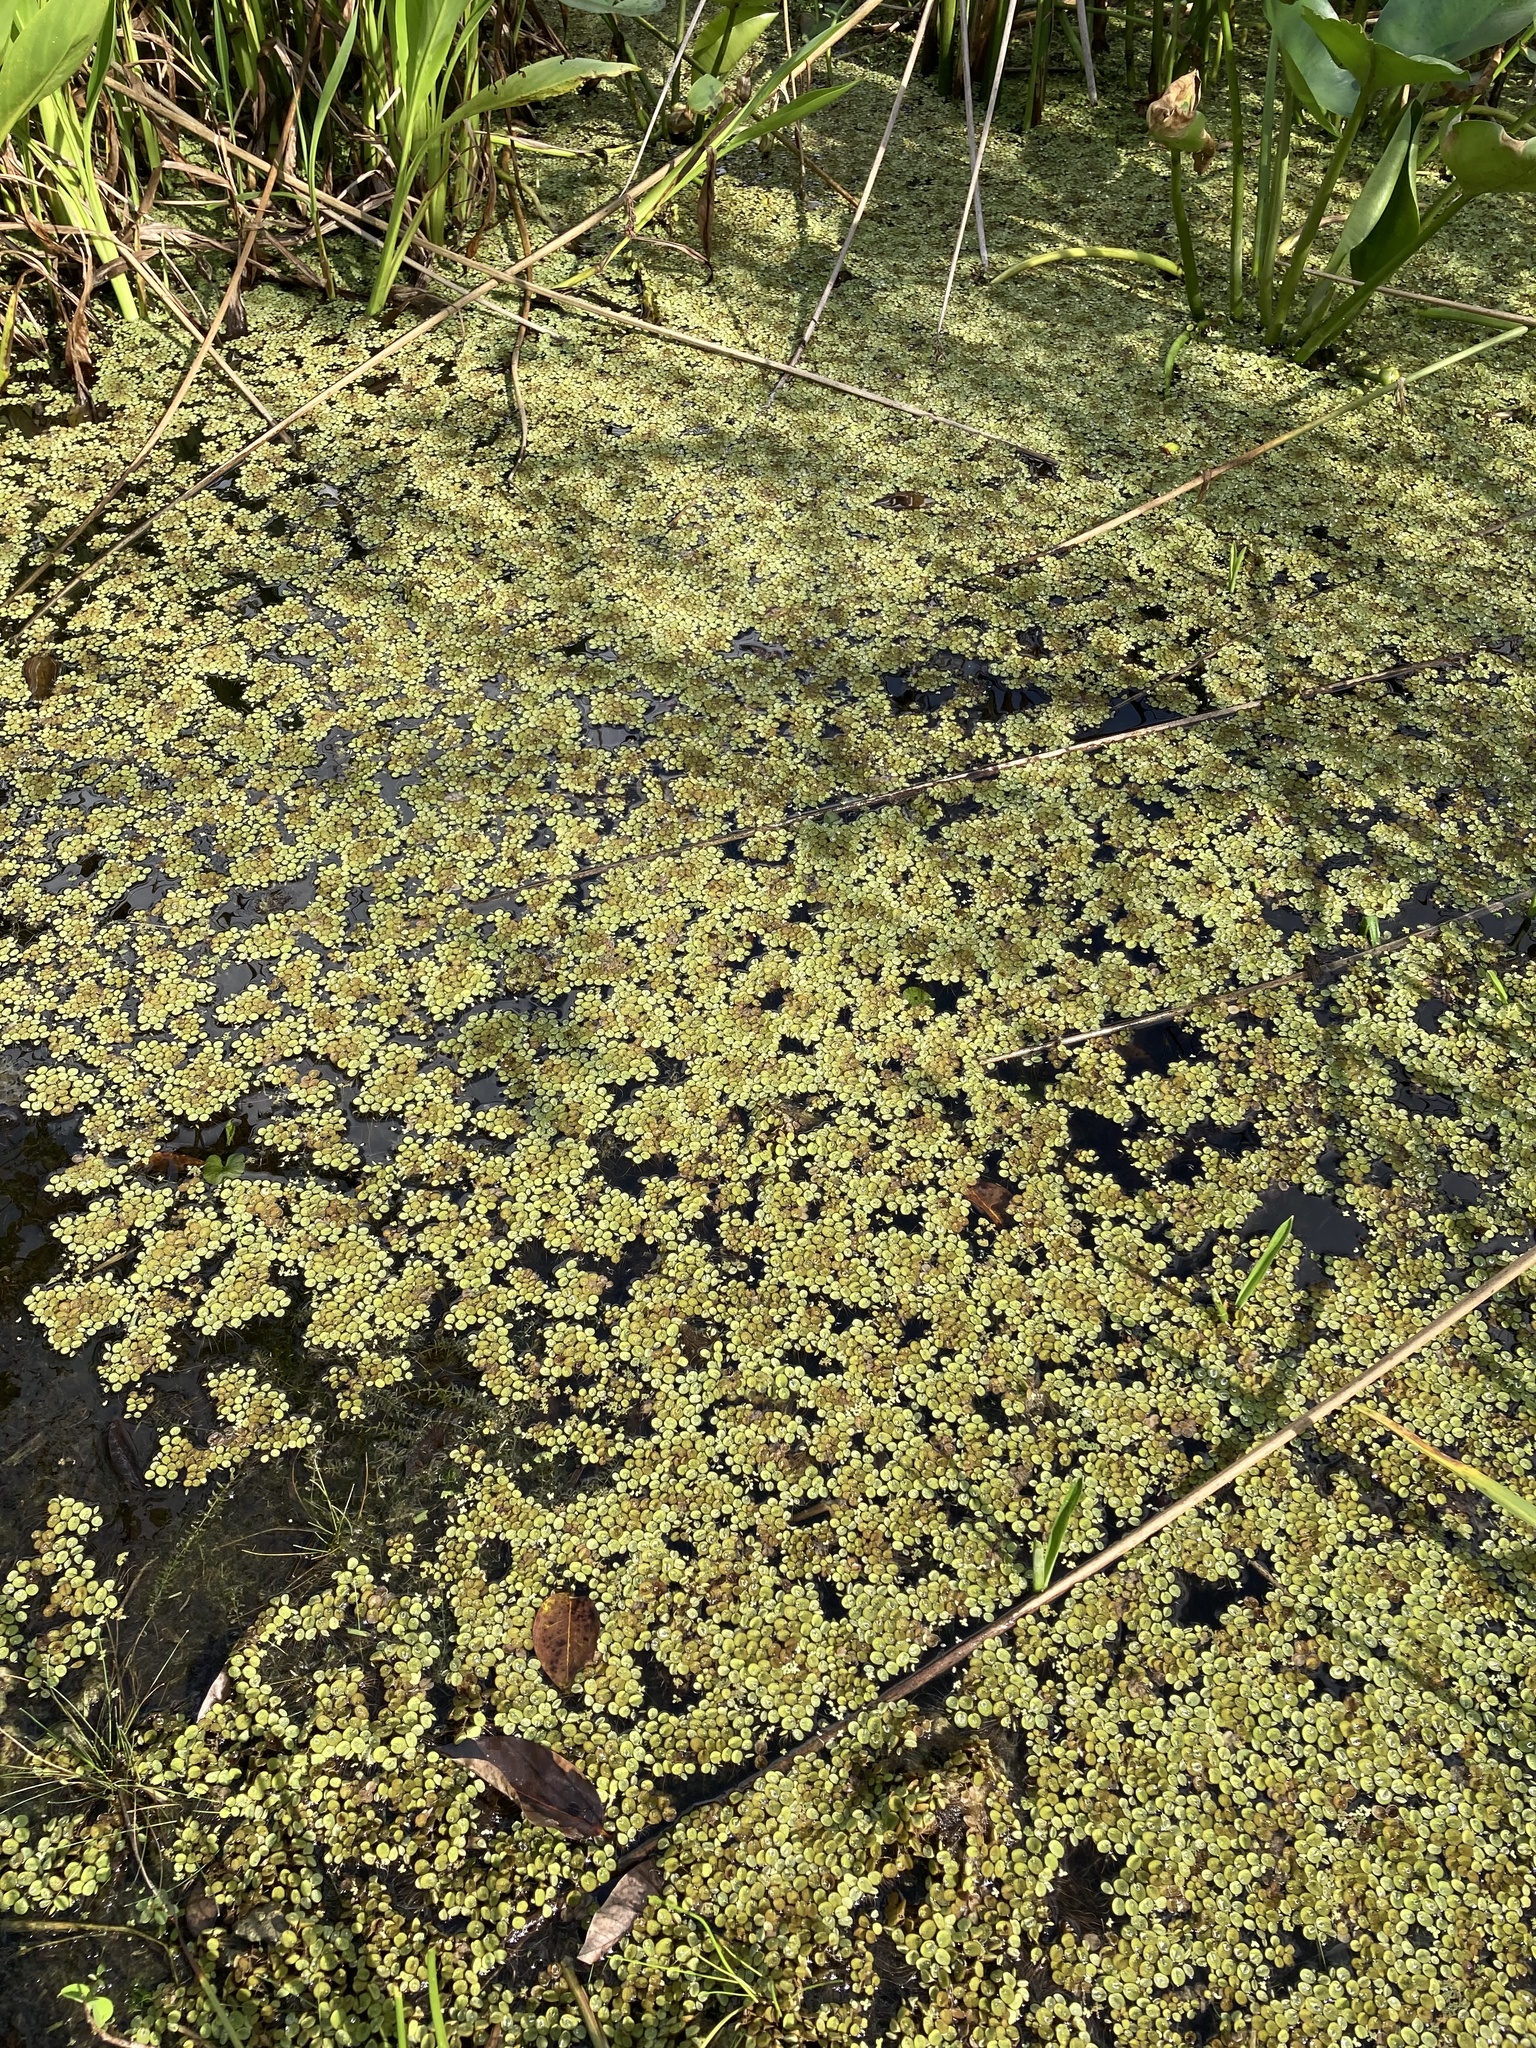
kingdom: Plantae
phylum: Tracheophyta
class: Polypodiopsida
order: Salviniales
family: Salviniaceae
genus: Salvinia
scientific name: Salvinia minima
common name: Water spangles
